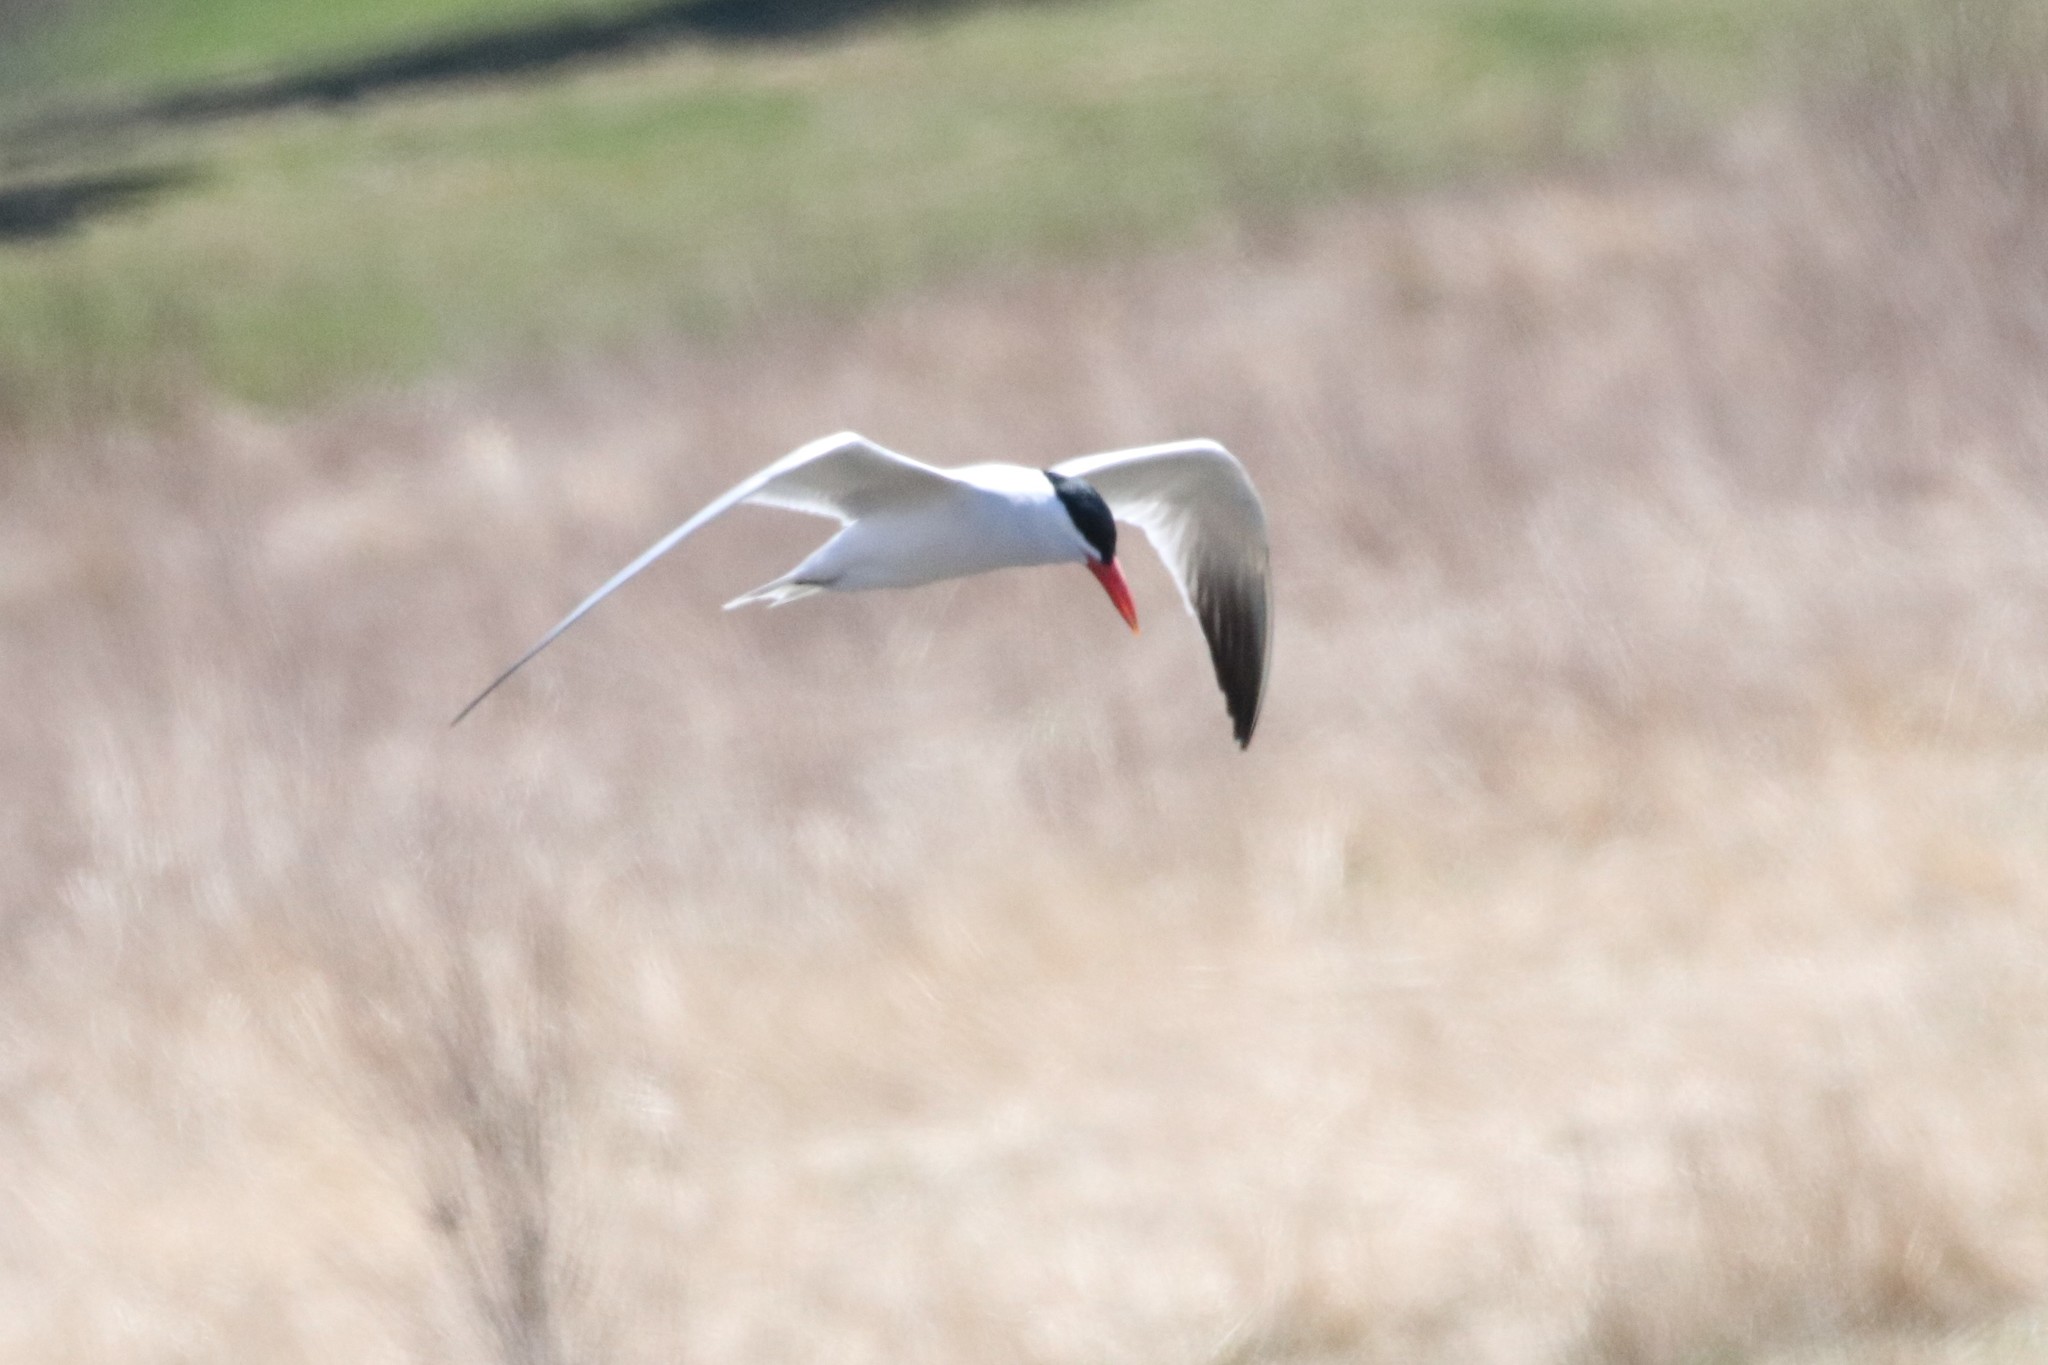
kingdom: Animalia
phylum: Chordata
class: Aves
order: Charadriiformes
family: Laridae
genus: Hydroprogne
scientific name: Hydroprogne caspia
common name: Caspian tern
